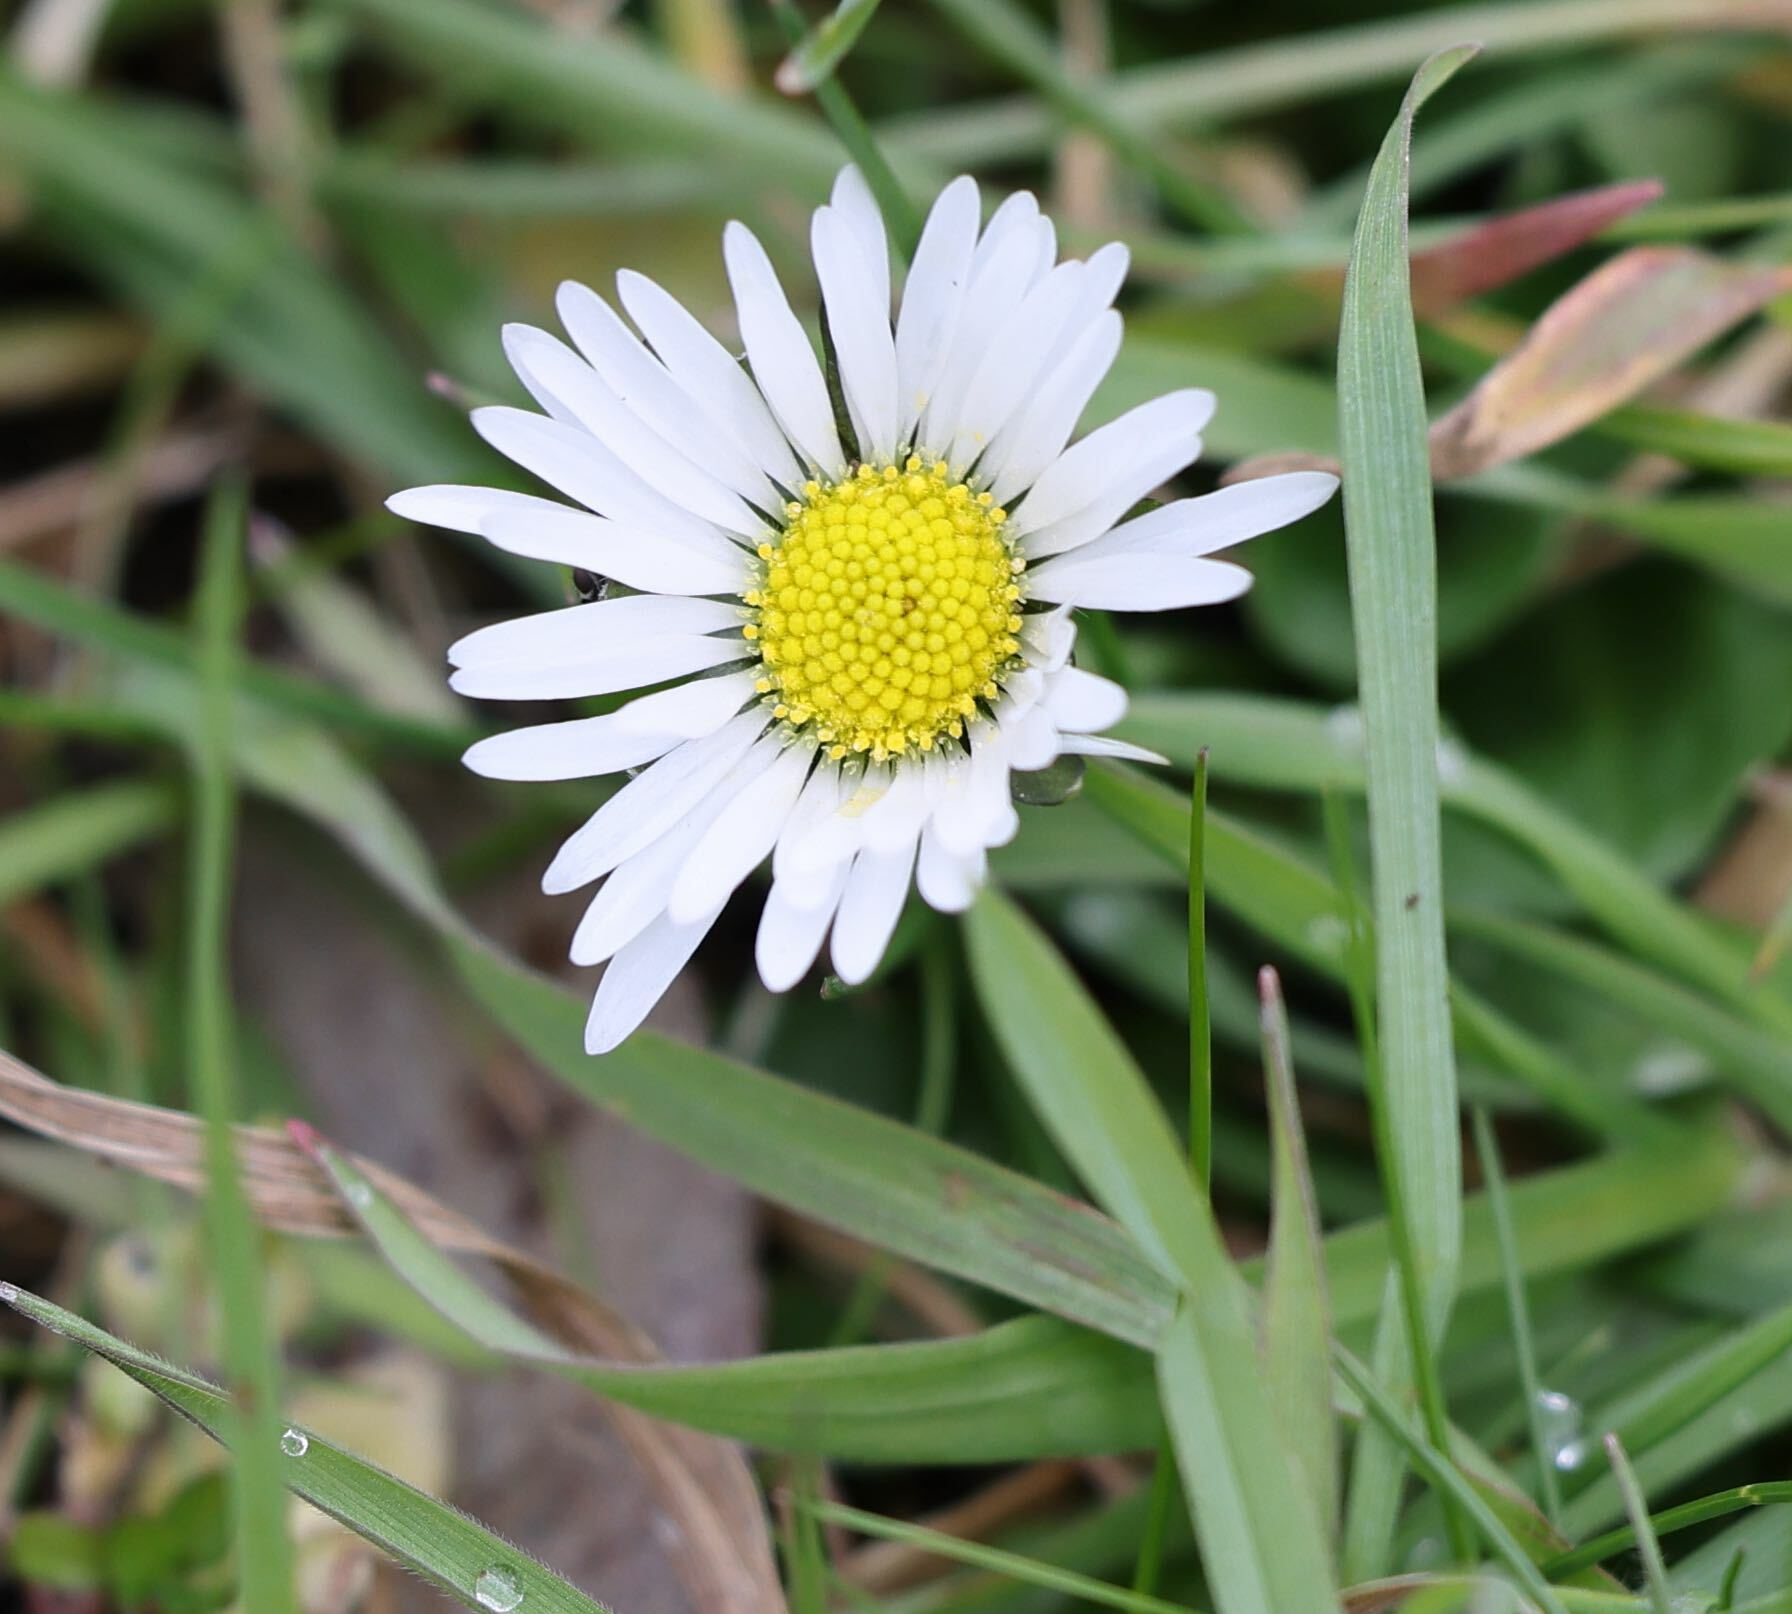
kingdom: Plantae
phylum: Tracheophyta
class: Magnoliopsida
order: Asterales
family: Asteraceae
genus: Bellis
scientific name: Bellis perennis
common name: Lawndaisy
